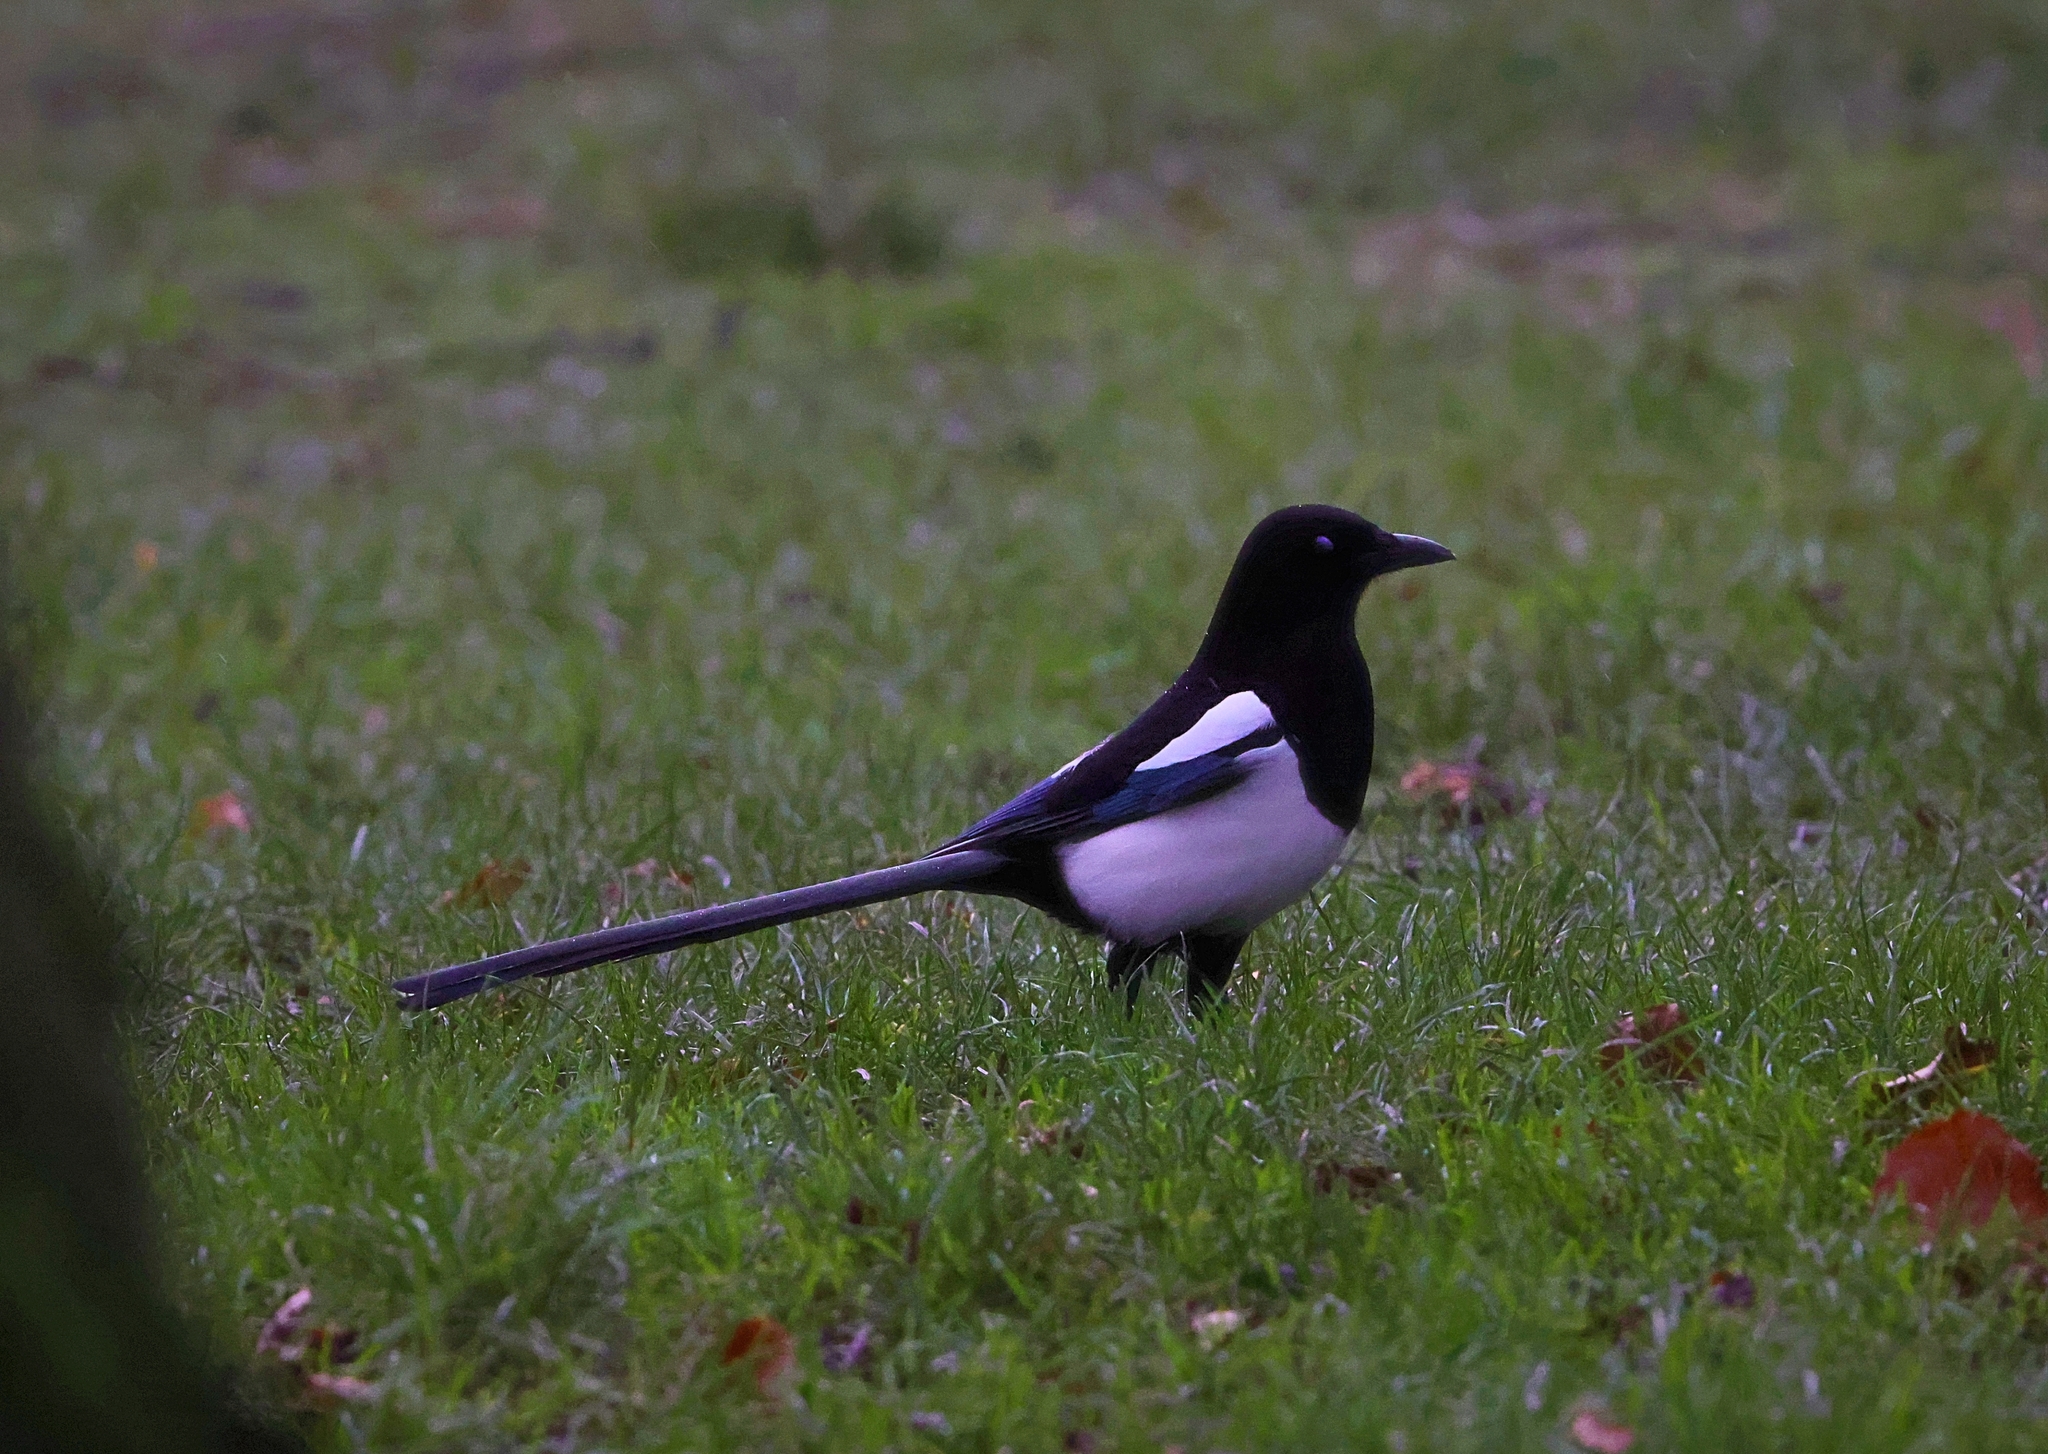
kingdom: Animalia
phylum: Chordata
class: Aves
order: Passeriformes
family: Corvidae
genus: Pica
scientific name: Pica pica
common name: Eurasian magpie
